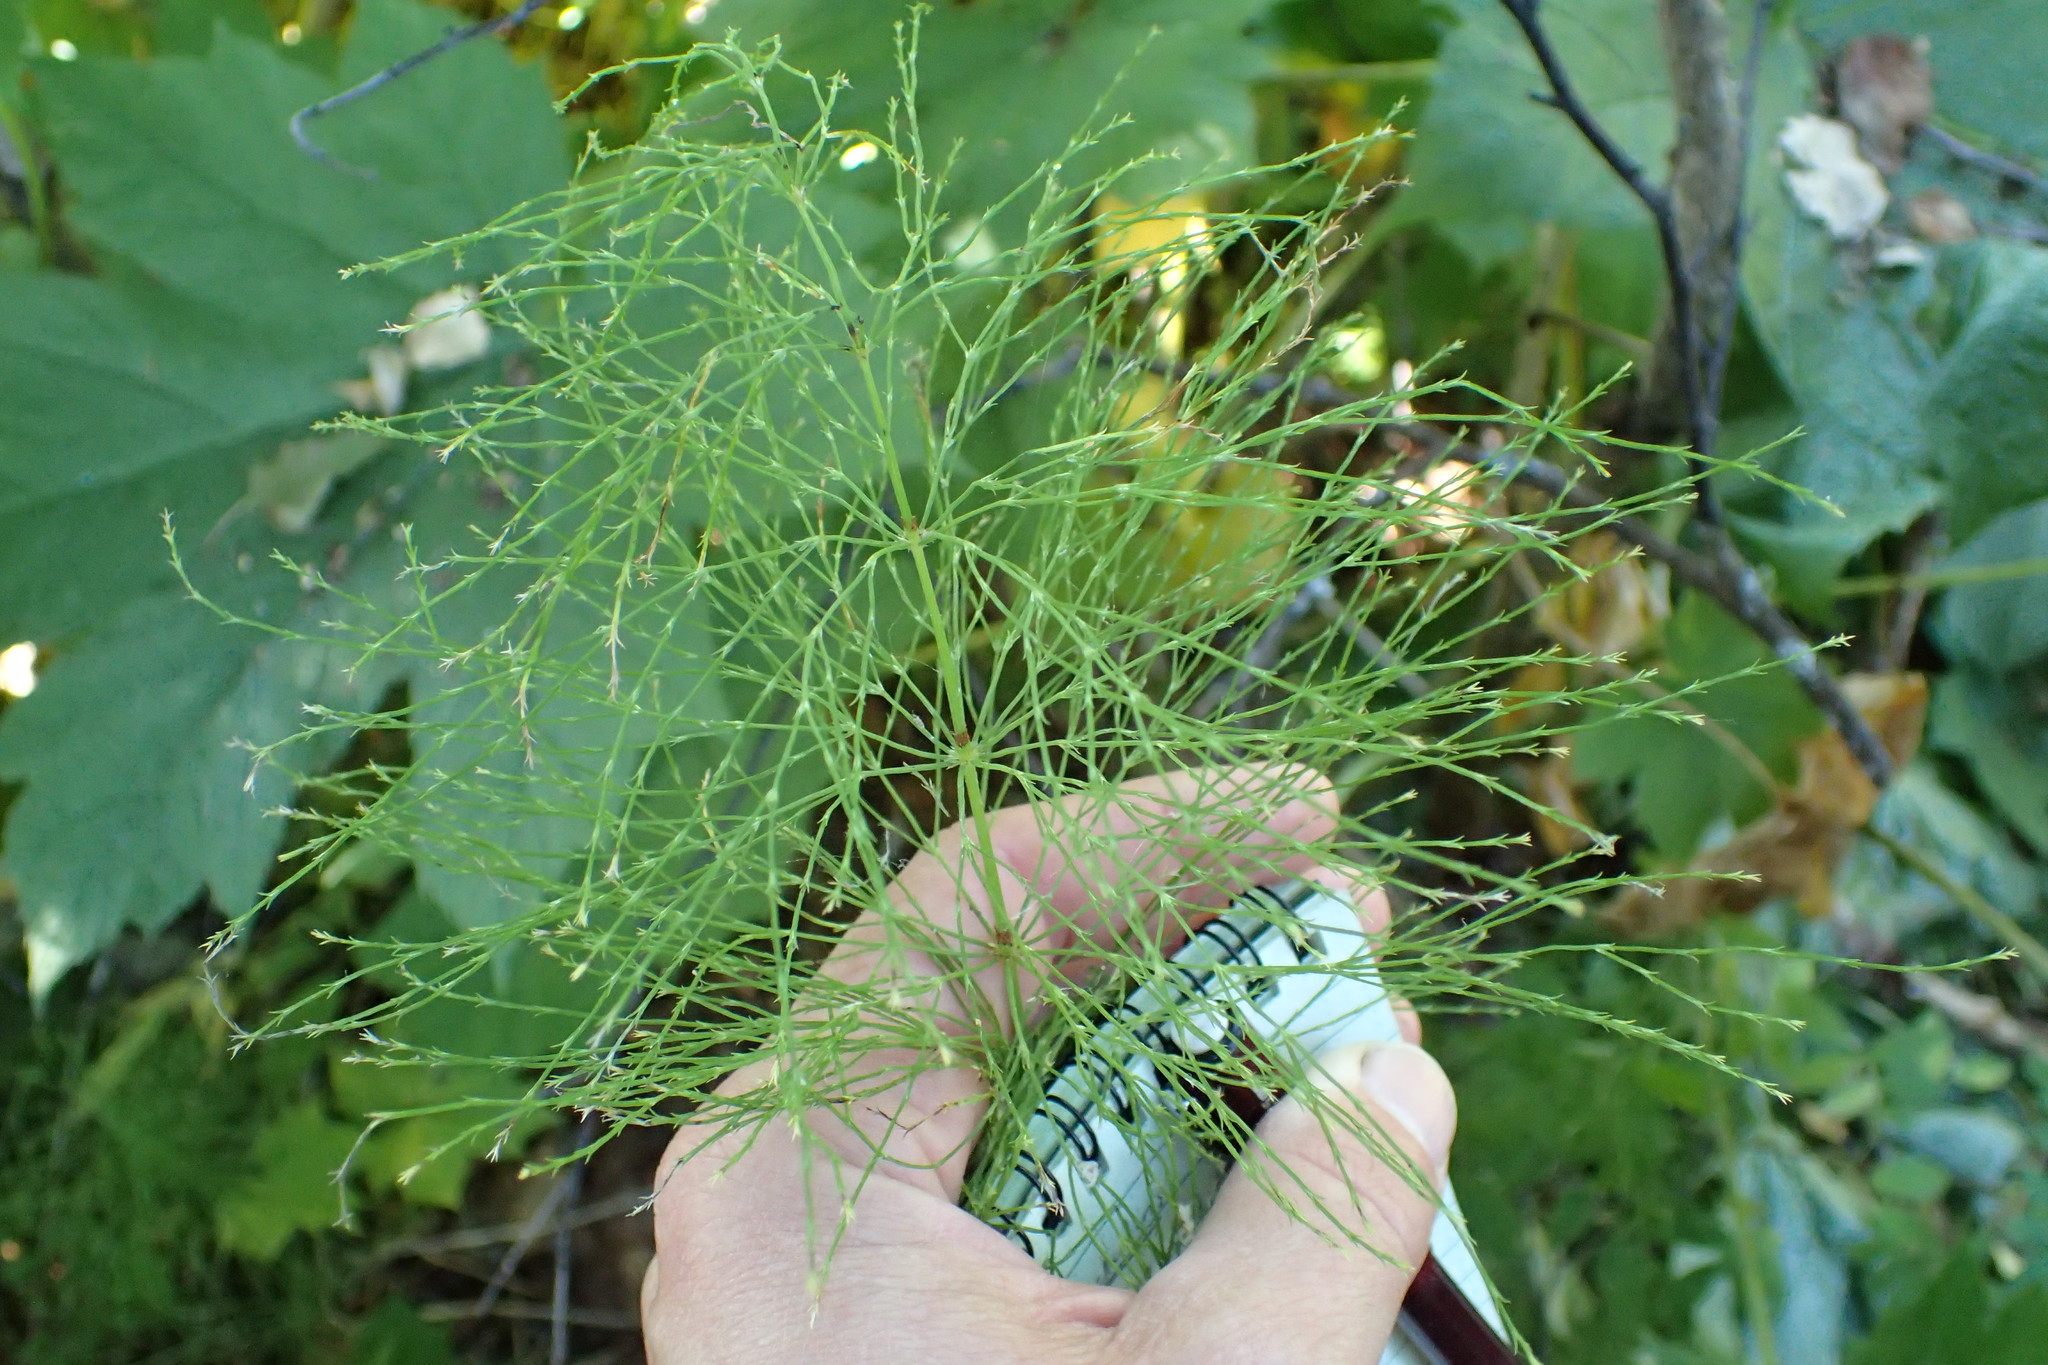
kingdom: Plantae
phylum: Tracheophyta
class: Polypodiopsida
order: Equisetales
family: Equisetaceae
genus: Equisetum
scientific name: Equisetum sylvaticum
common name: Wood horsetail
